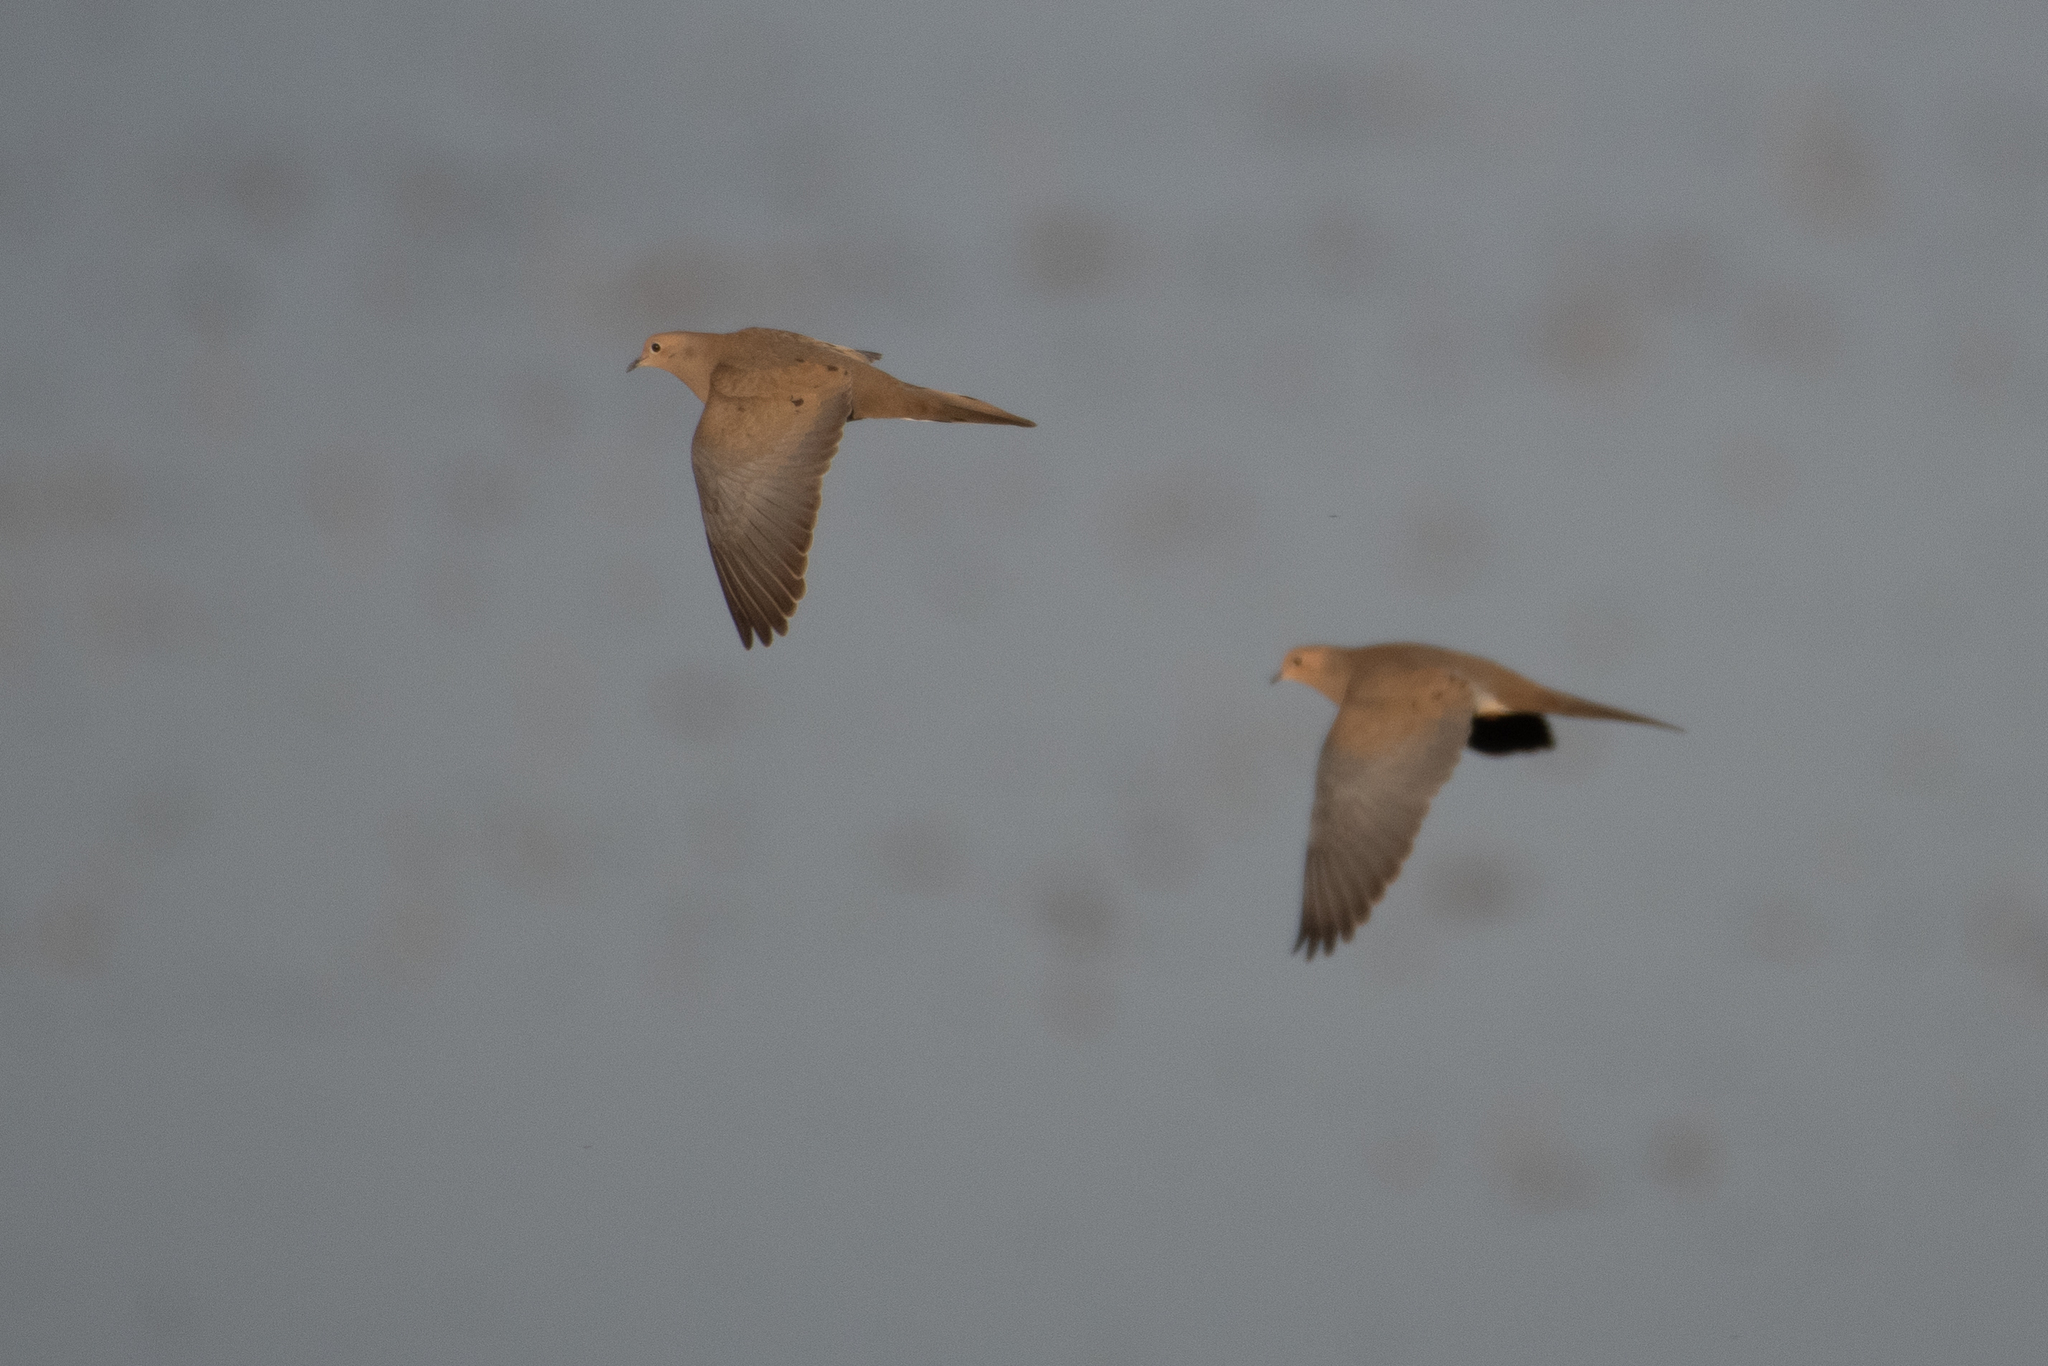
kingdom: Animalia
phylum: Chordata
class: Aves
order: Columbiformes
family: Columbidae
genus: Zenaida
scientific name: Zenaida macroura
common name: Mourning dove
